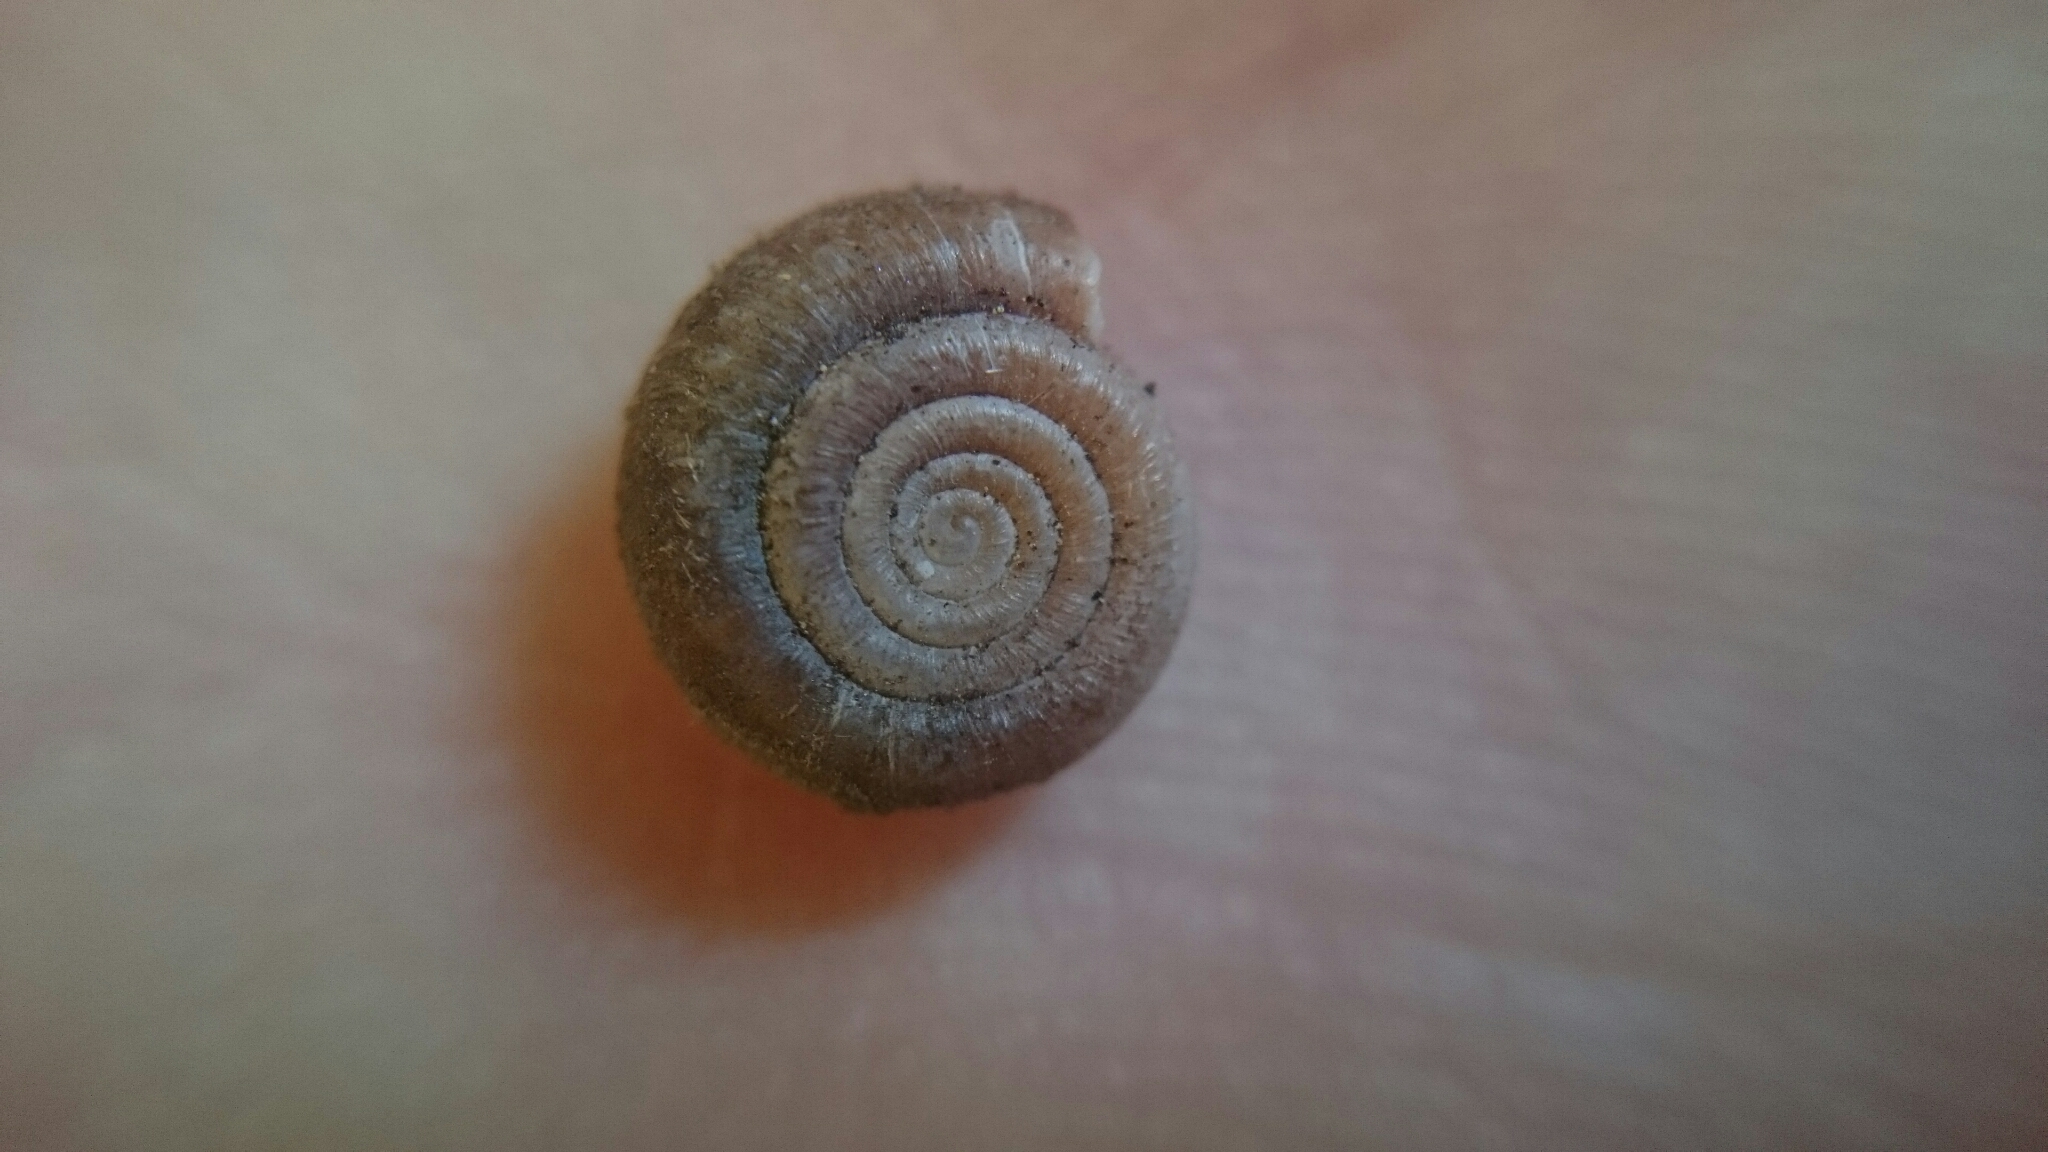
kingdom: Animalia
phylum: Mollusca
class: Gastropoda
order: Stylommatophora
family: Helicodontidae
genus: Helicodonta
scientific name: Helicodonta obvoluta
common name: Cheese snail
